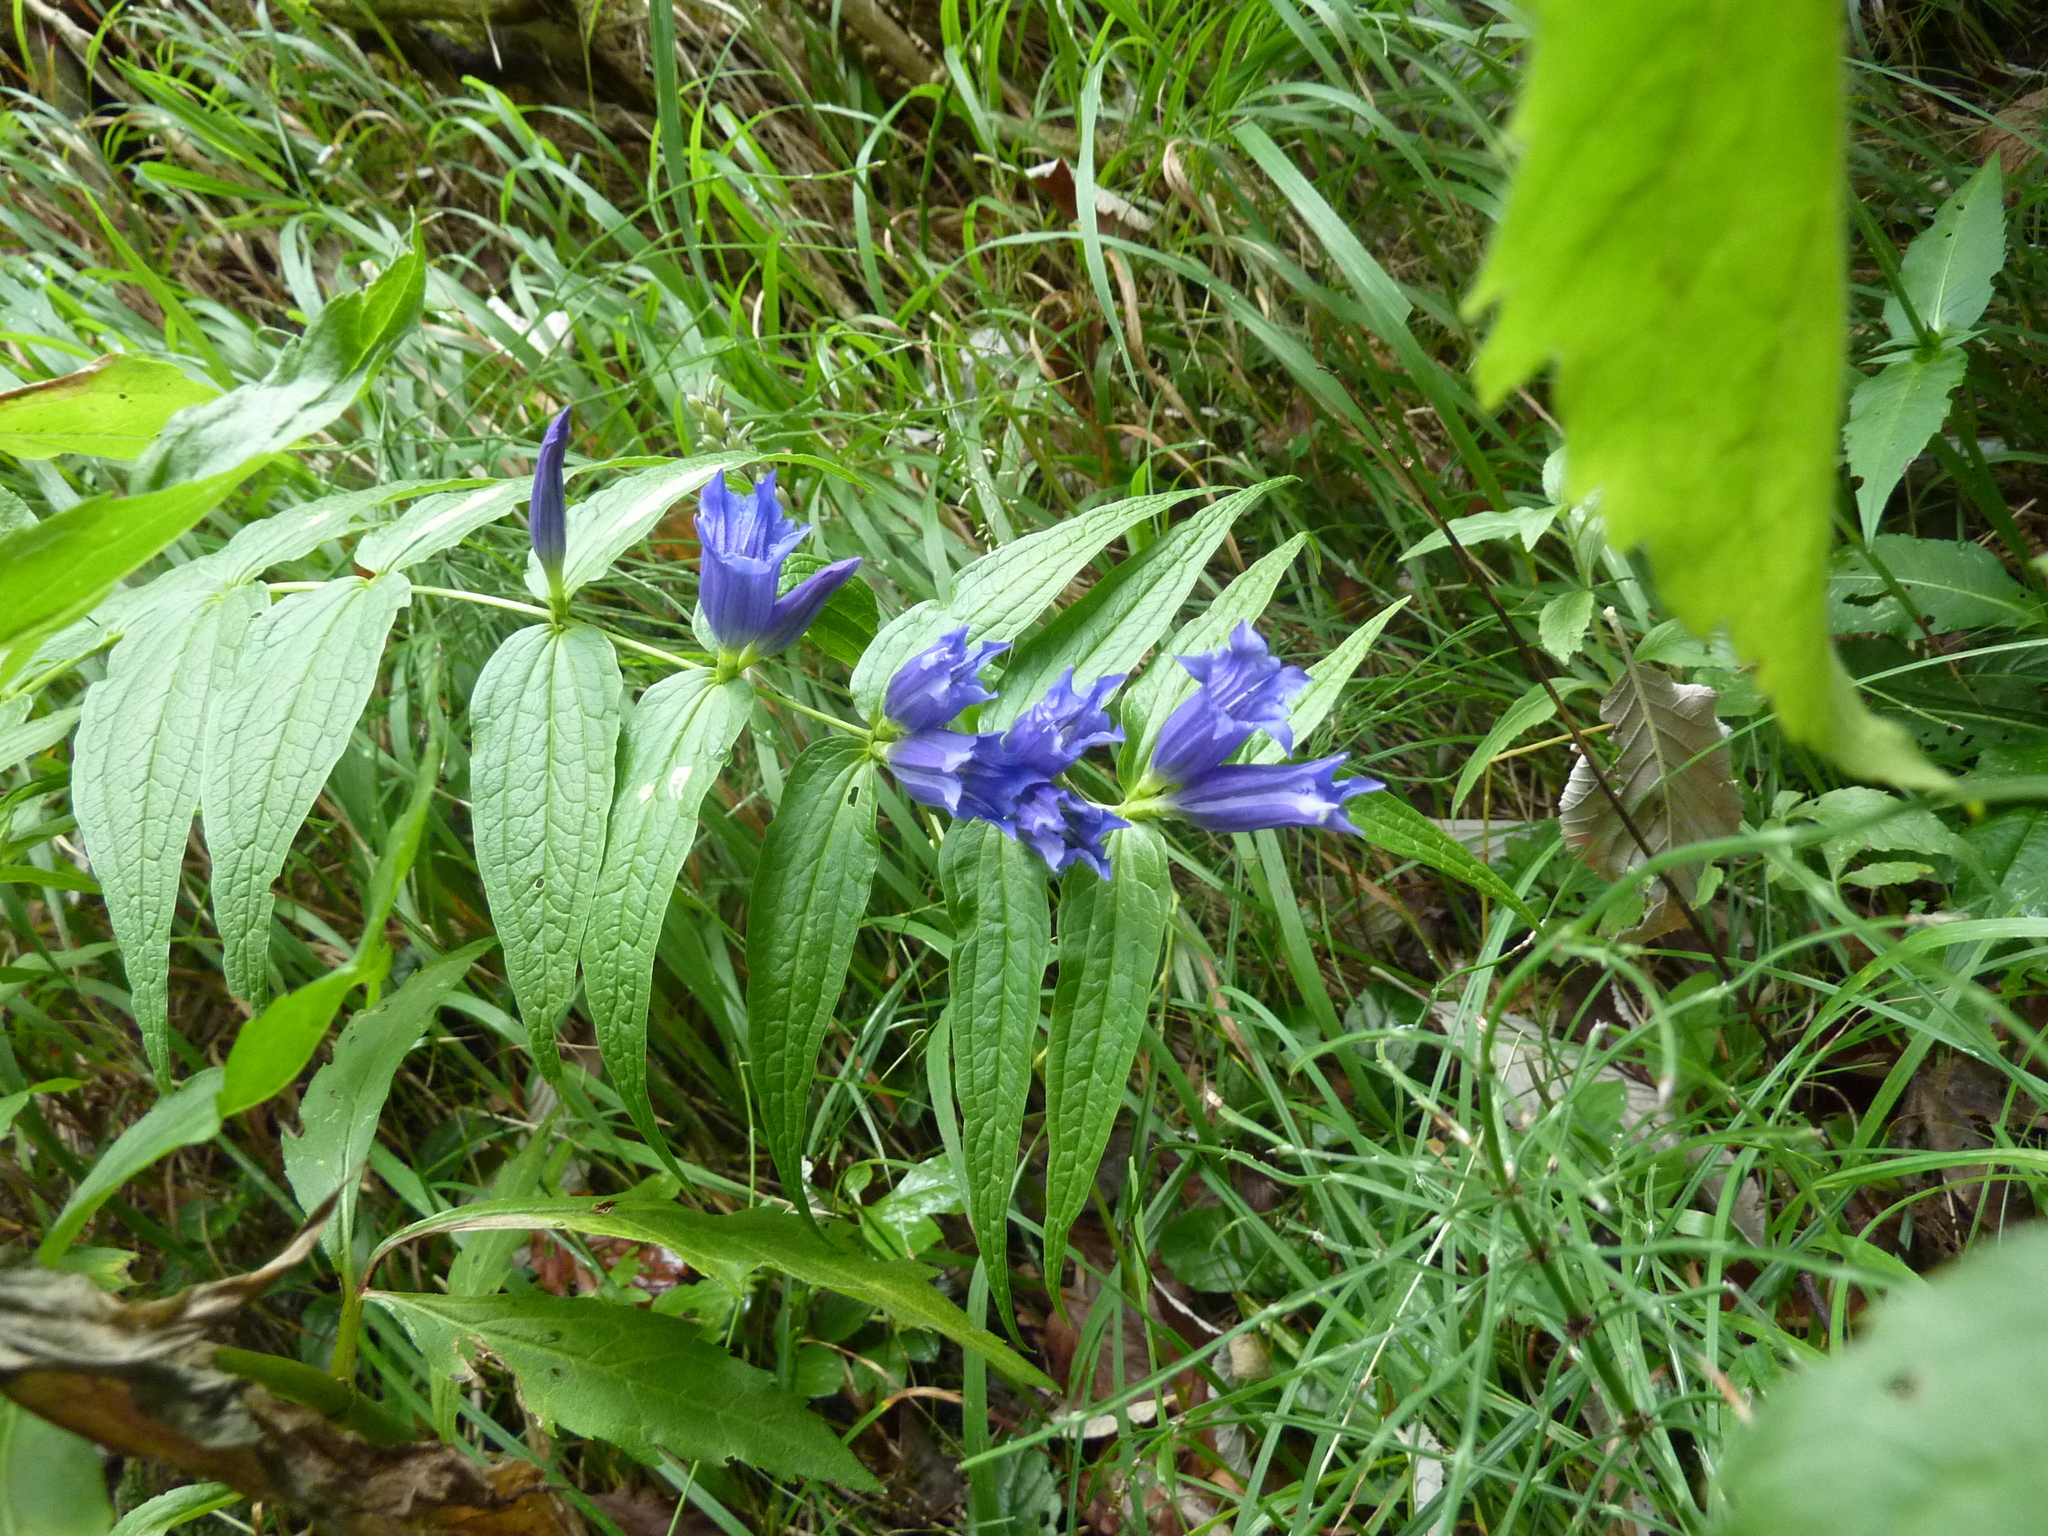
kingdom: Plantae
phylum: Tracheophyta
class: Magnoliopsida
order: Gentianales
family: Gentianaceae
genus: Gentiana
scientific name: Gentiana asclepiadea
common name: Willow gentian
